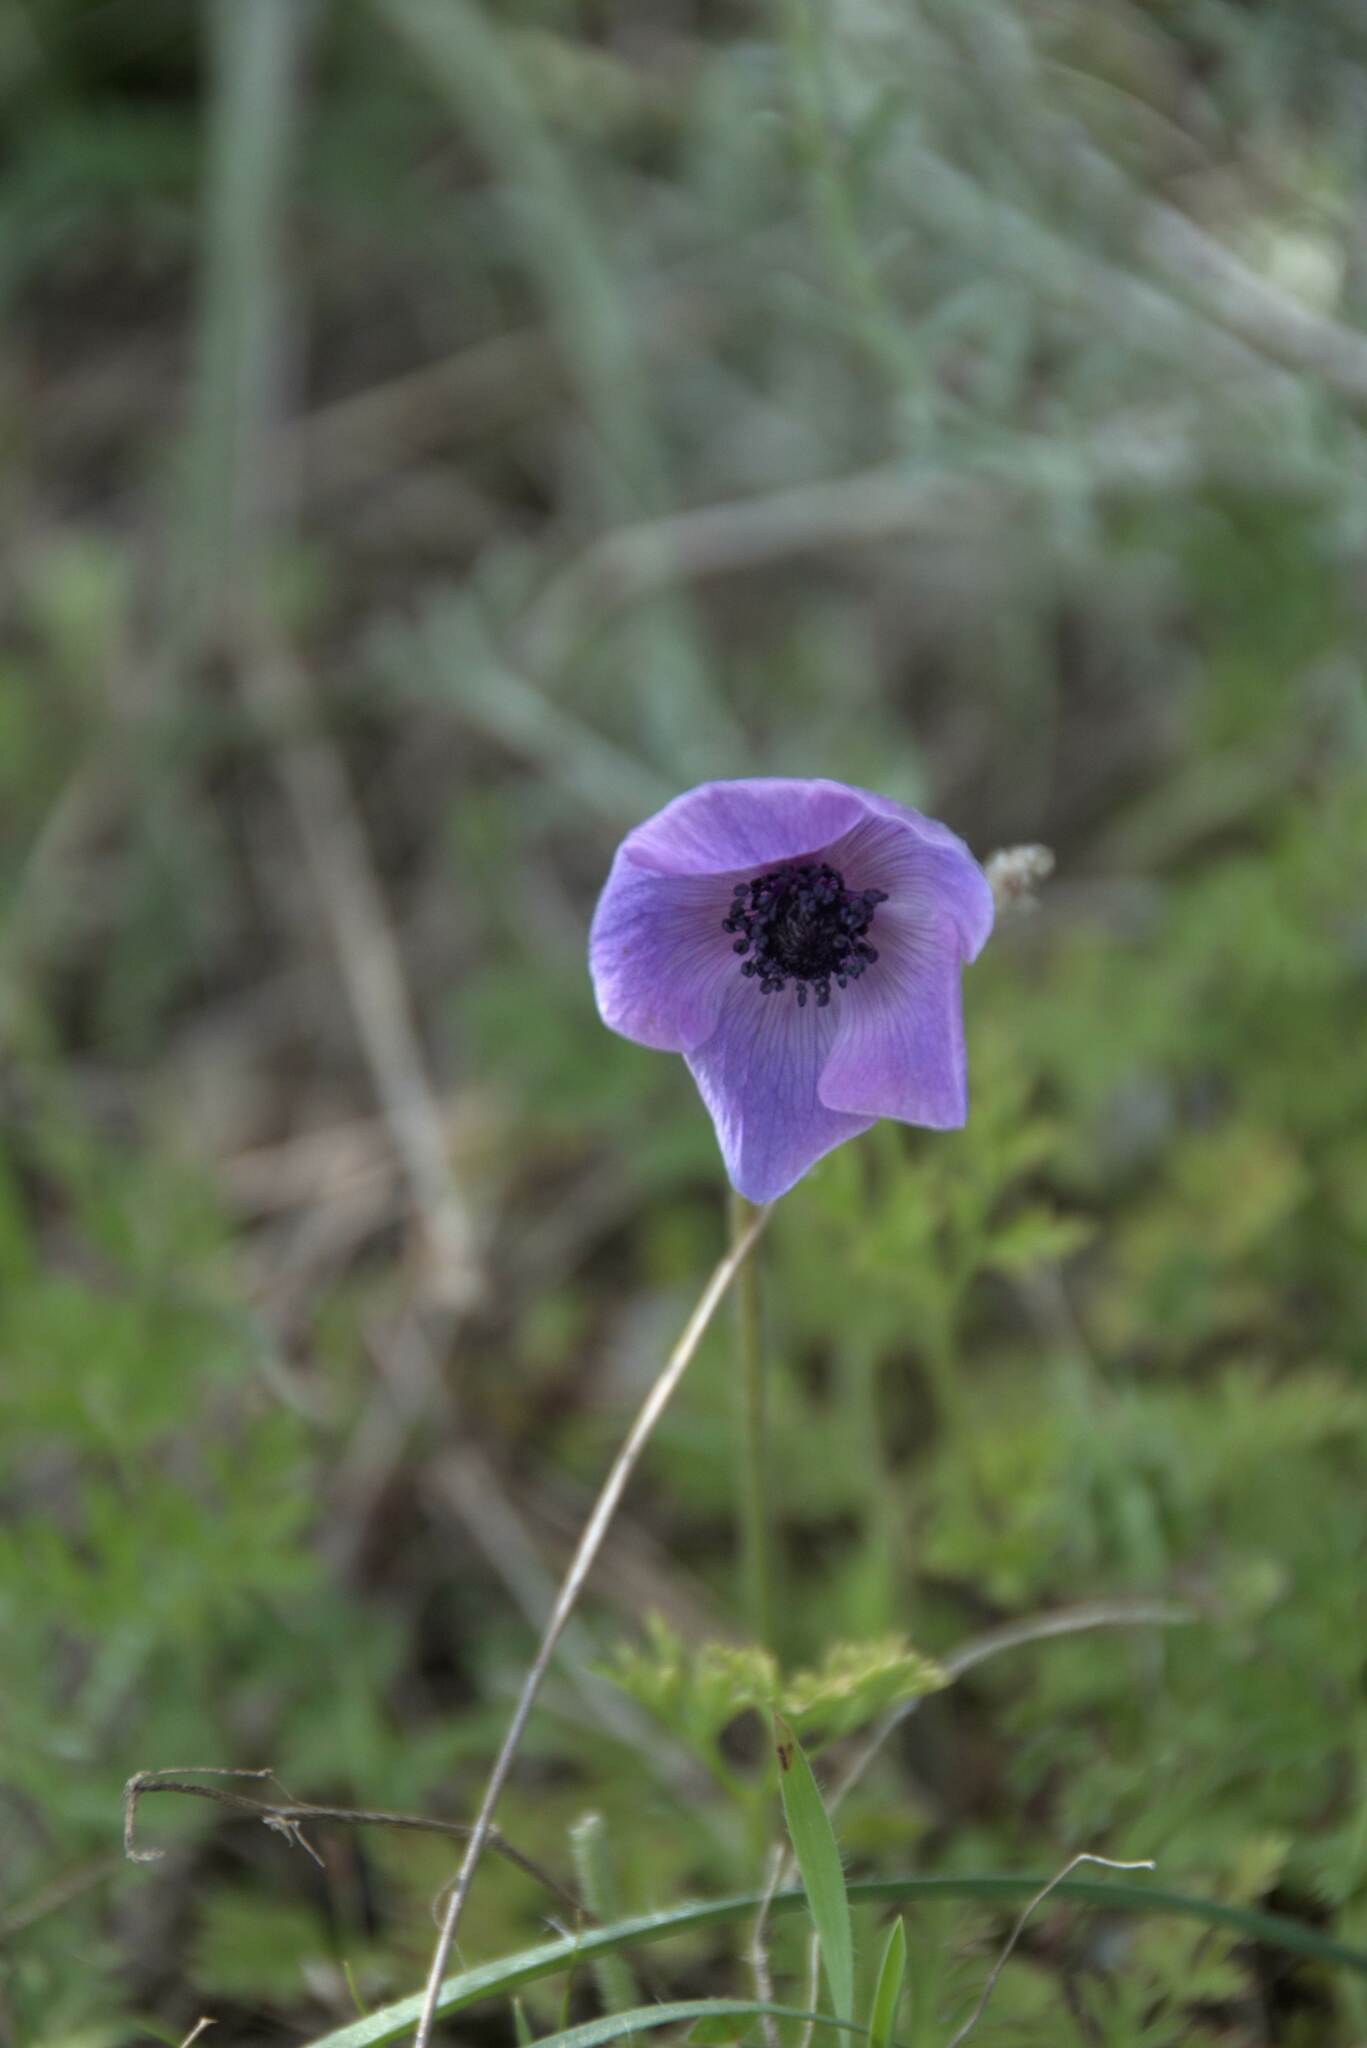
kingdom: Plantae
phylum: Tracheophyta
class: Magnoliopsida
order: Ranunculales
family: Ranunculaceae
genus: Anemone
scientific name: Anemone coronaria
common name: Poppy anemone
